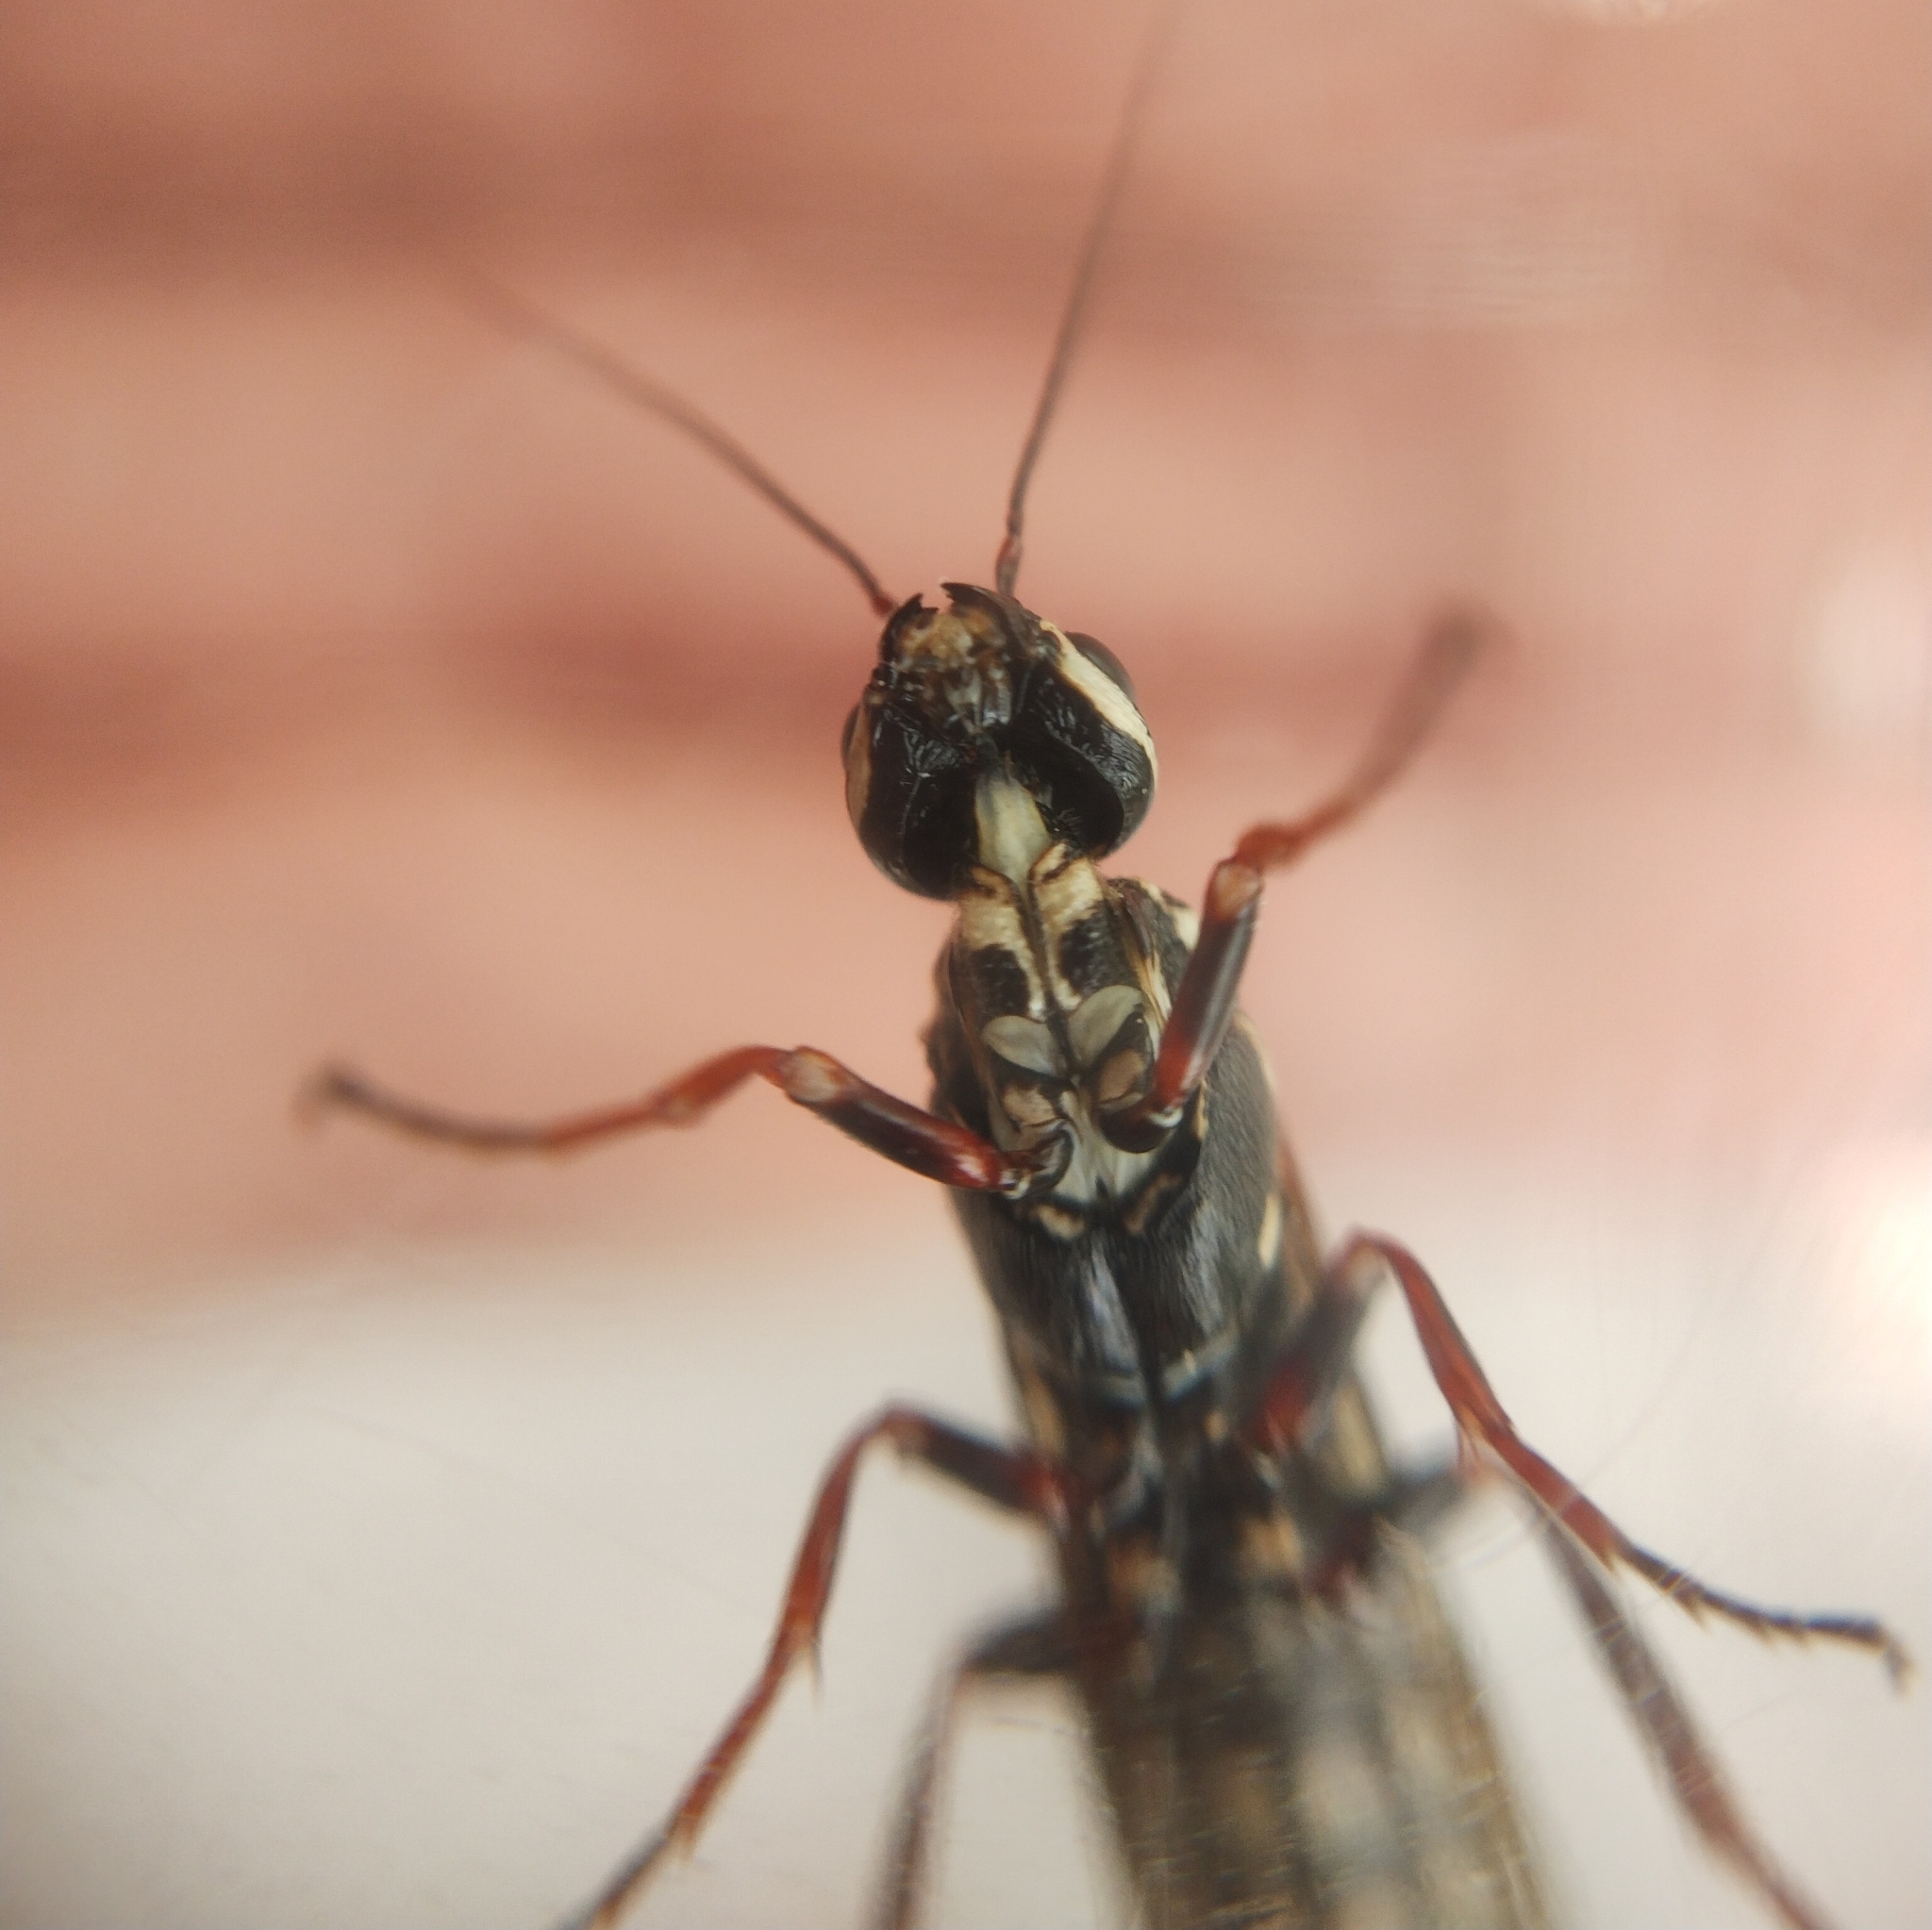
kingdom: Animalia
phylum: Arthropoda
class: Insecta
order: Hymenoptera
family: Xiphydriidae
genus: Xiphydria
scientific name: Xiphydria picta
